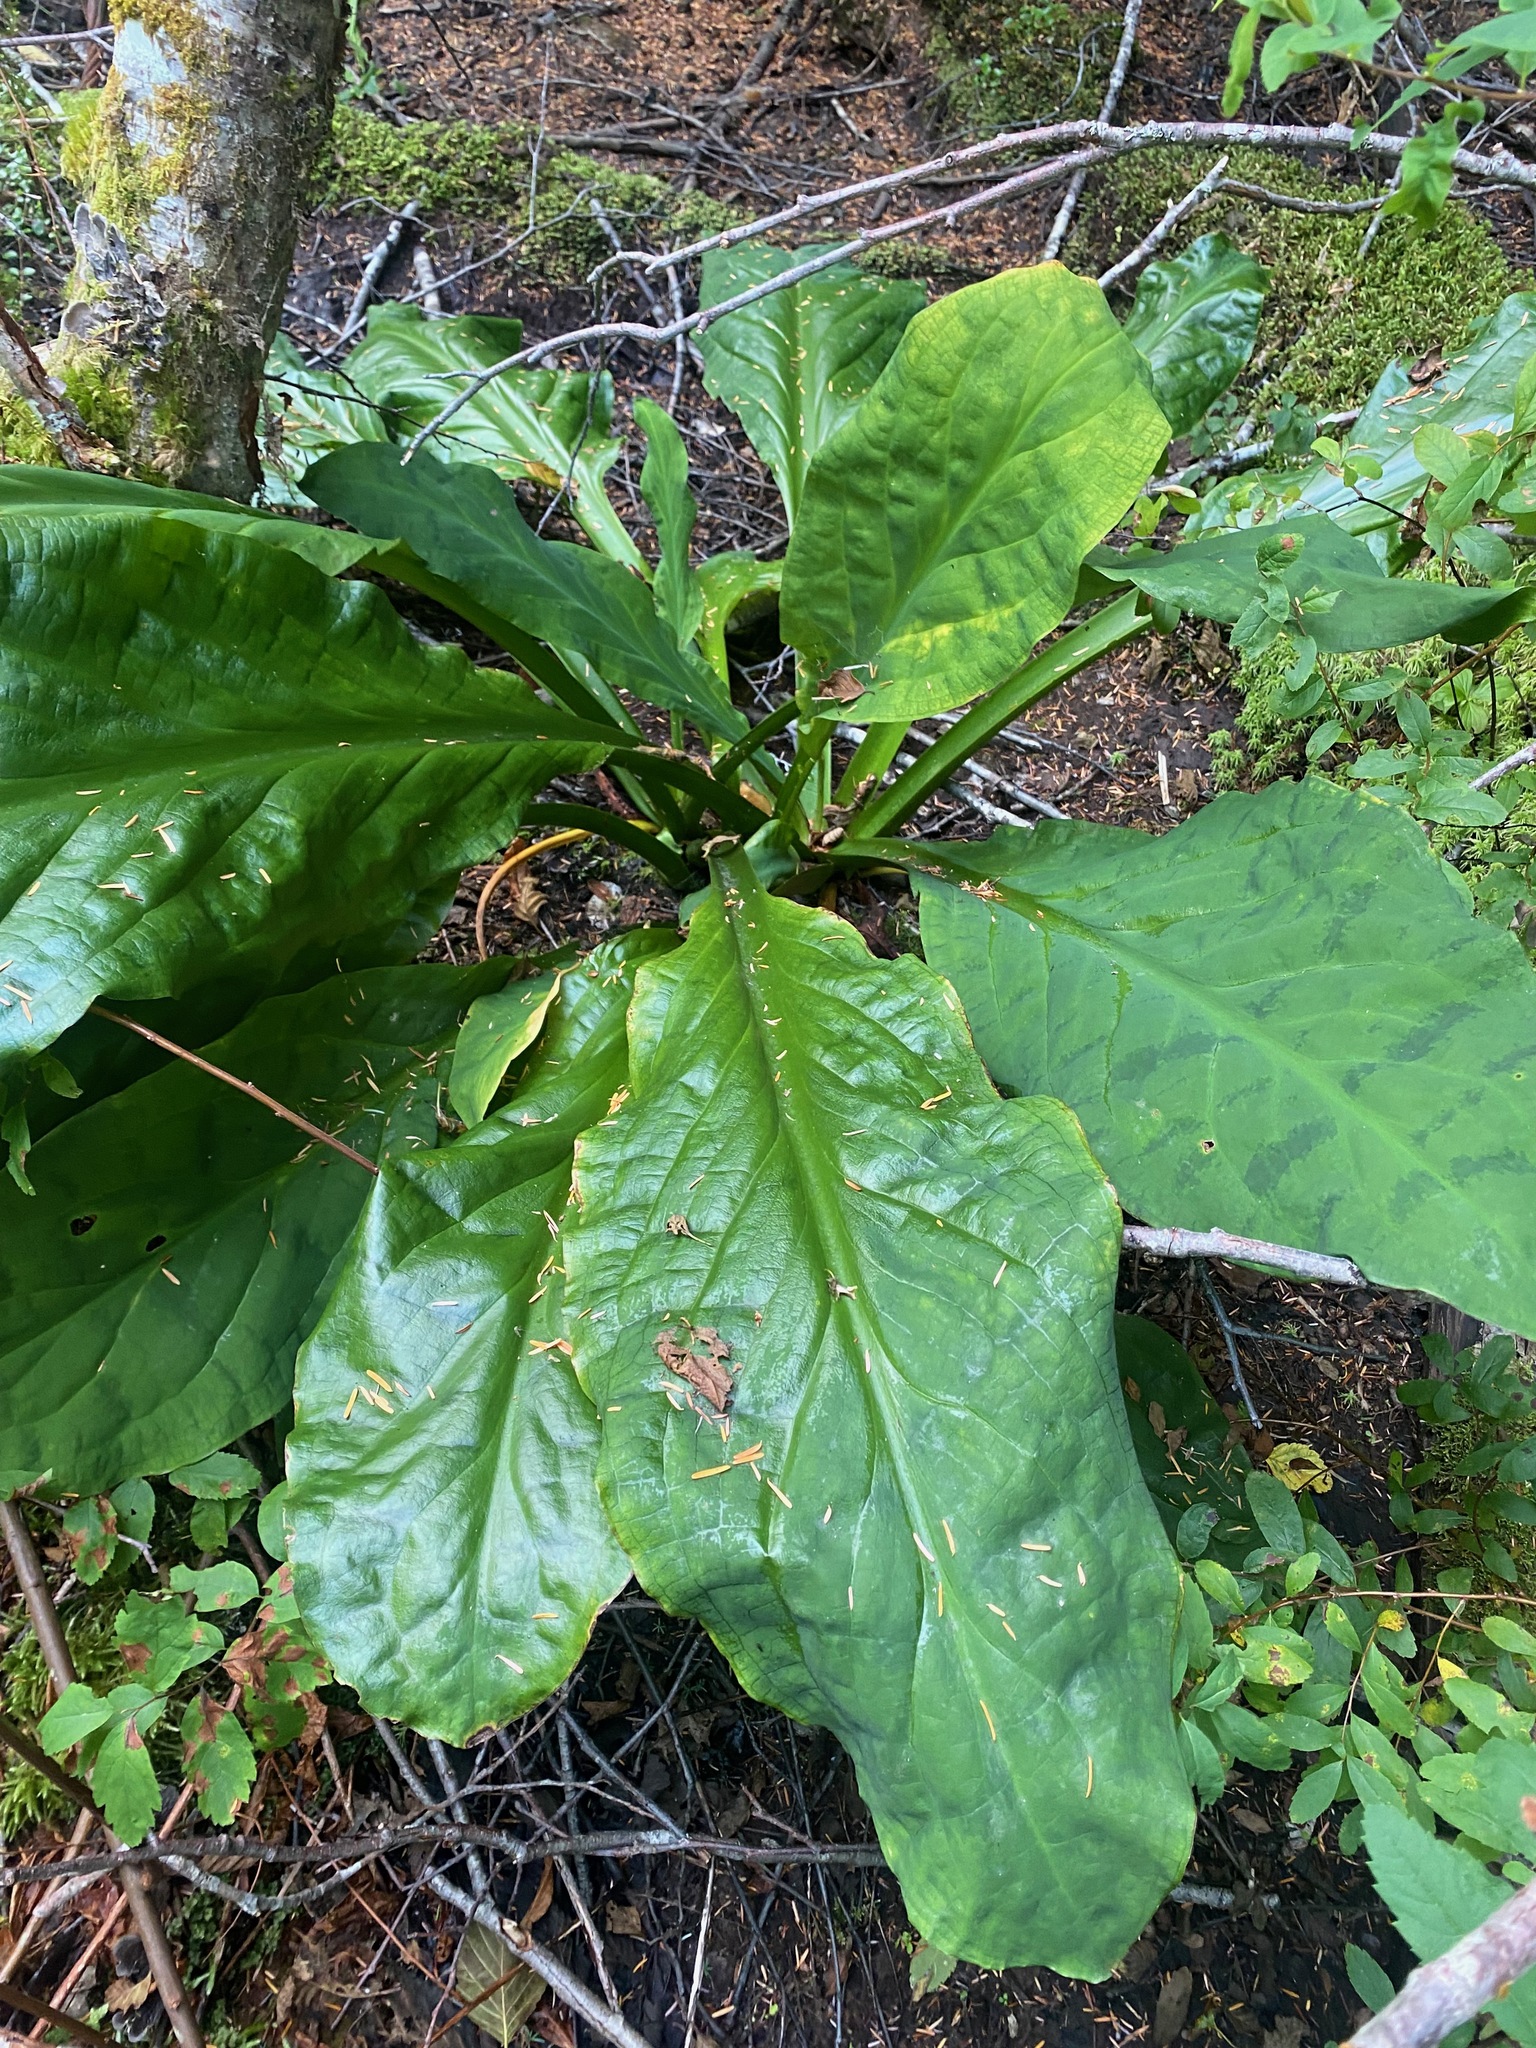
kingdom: Plantae
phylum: Tracheophyta
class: Liliopsida
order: Alismatales
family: Araceae
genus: Lysichiton
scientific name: Lysichiton americanus
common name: American skunk cabbage
